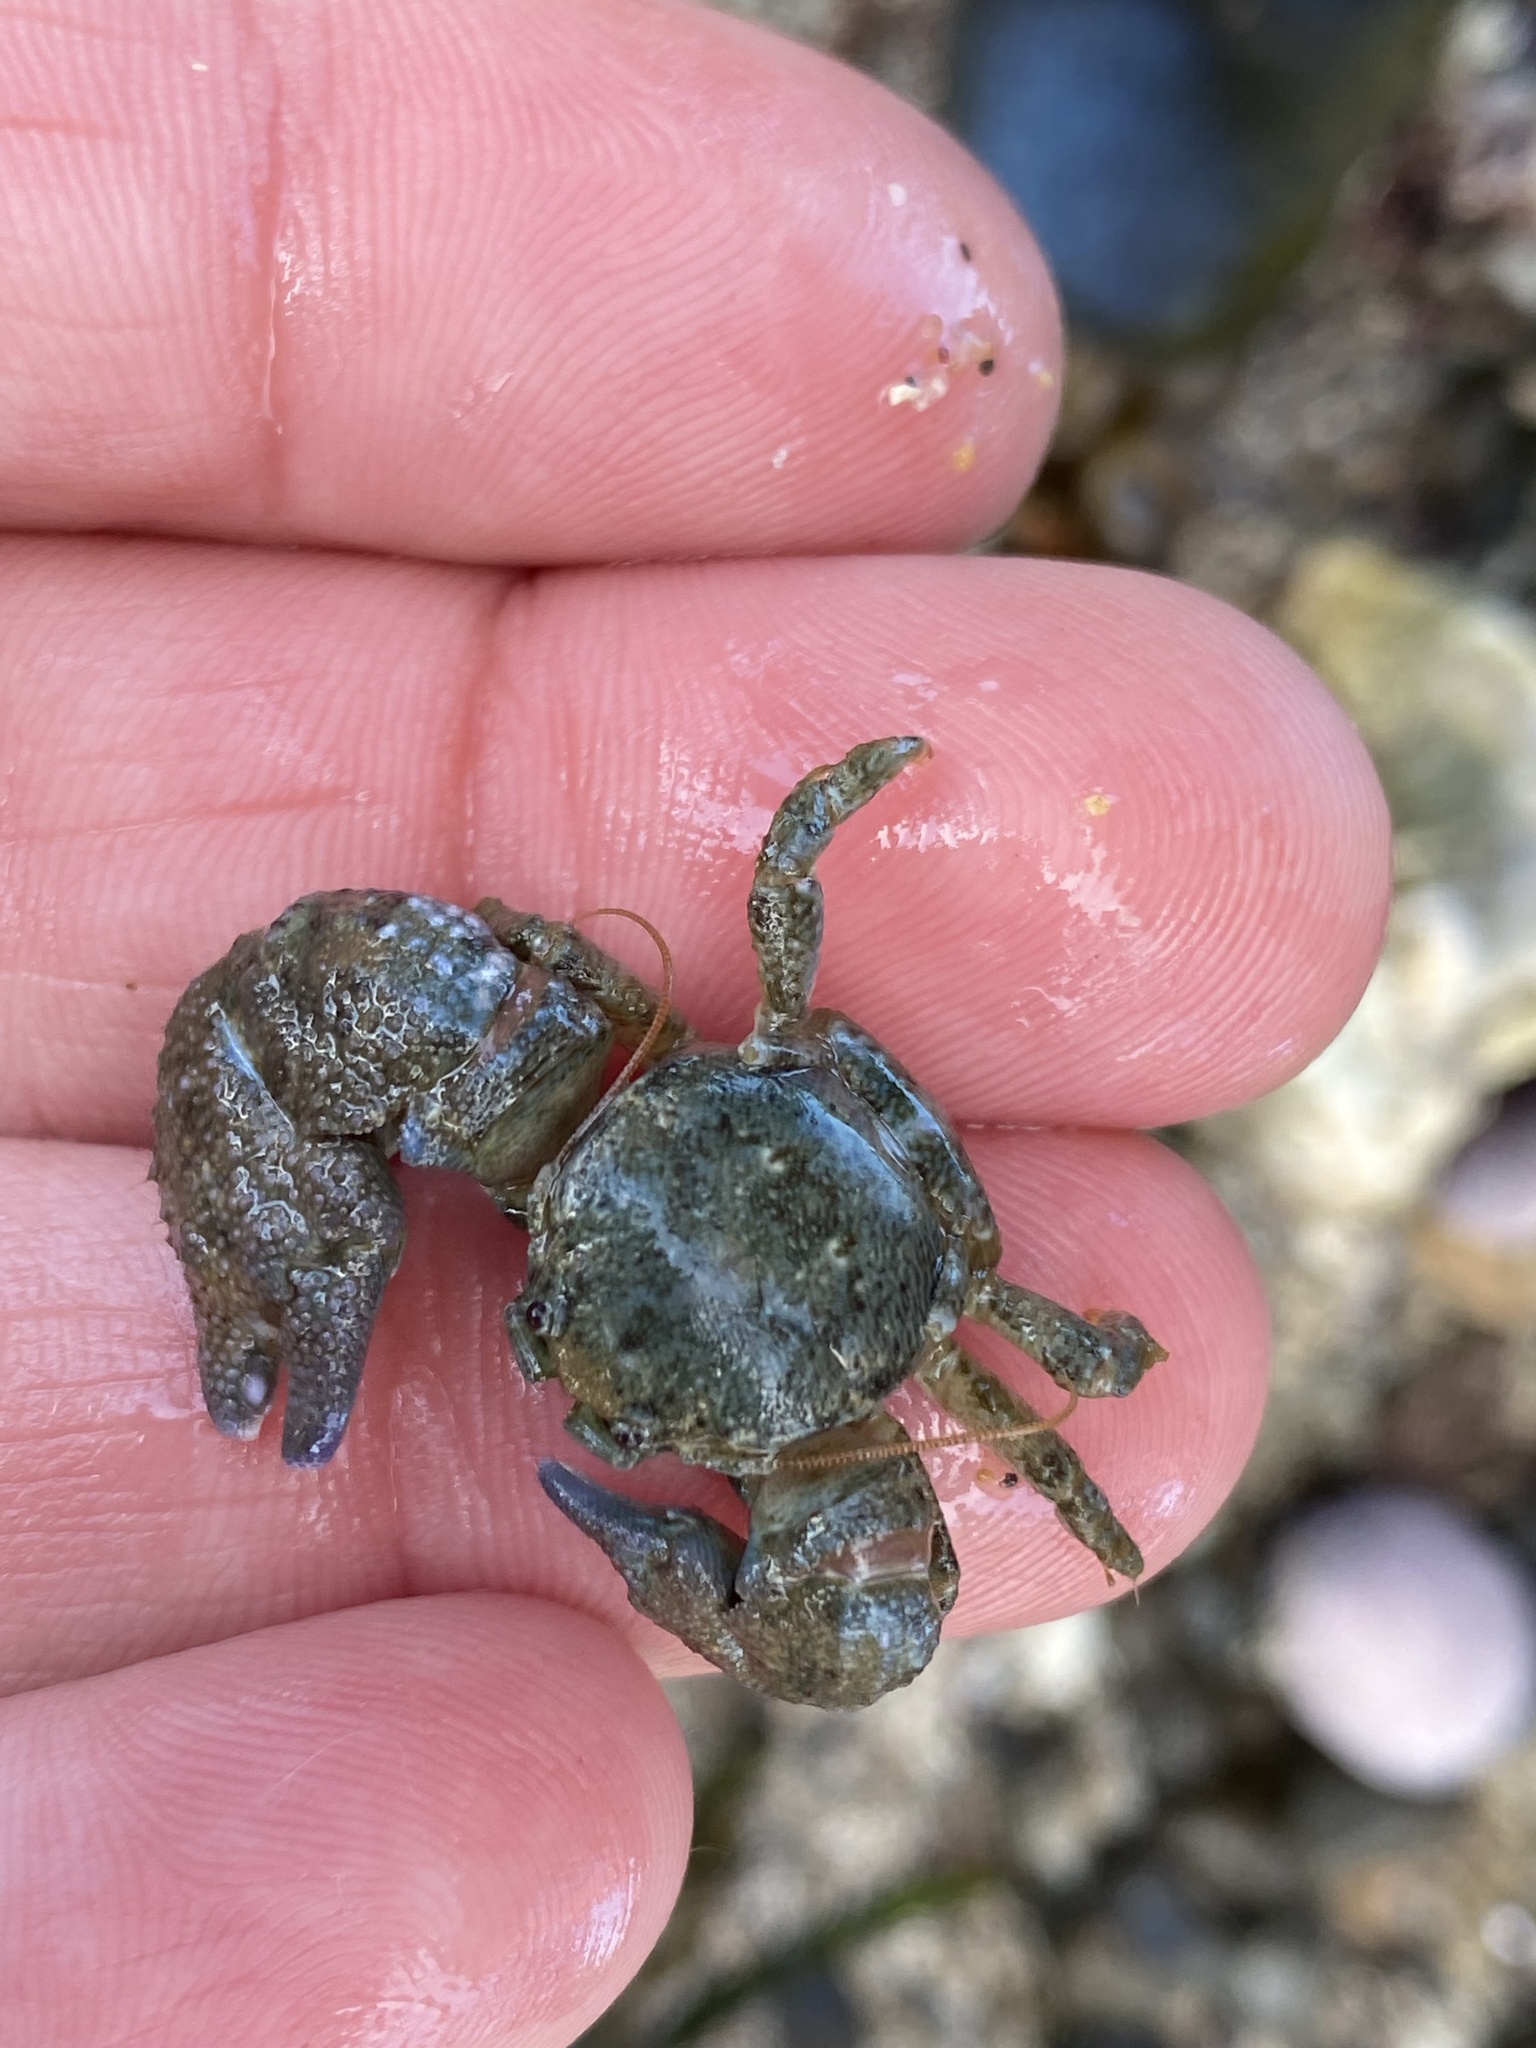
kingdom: Animalia
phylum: Arthropoda
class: Malacostraca
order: Decapoda
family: Porcellanidae
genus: Pachycheles
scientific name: Pachycheles rudis
